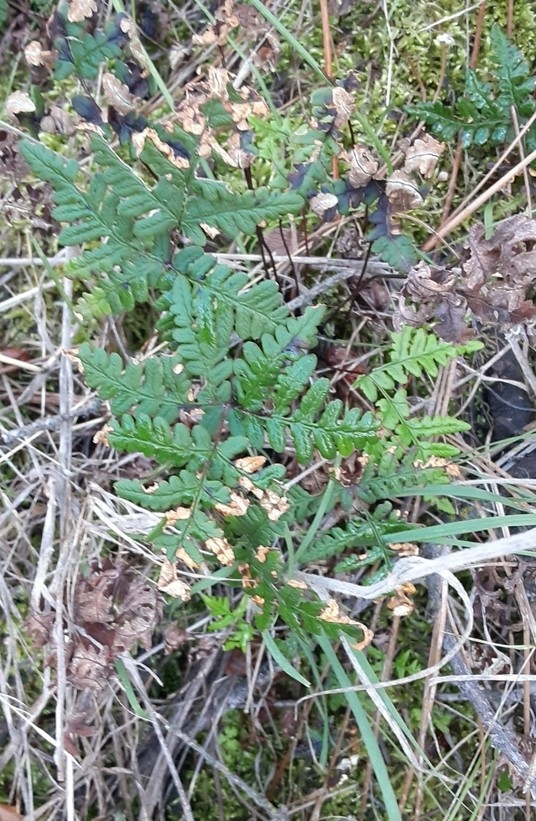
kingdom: Plantae
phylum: Tracheophyta
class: Polypodiopsida
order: Polypodiales
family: Pteridaceae
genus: Pentagramma
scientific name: Pentagramma triangularis
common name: Gold fern
